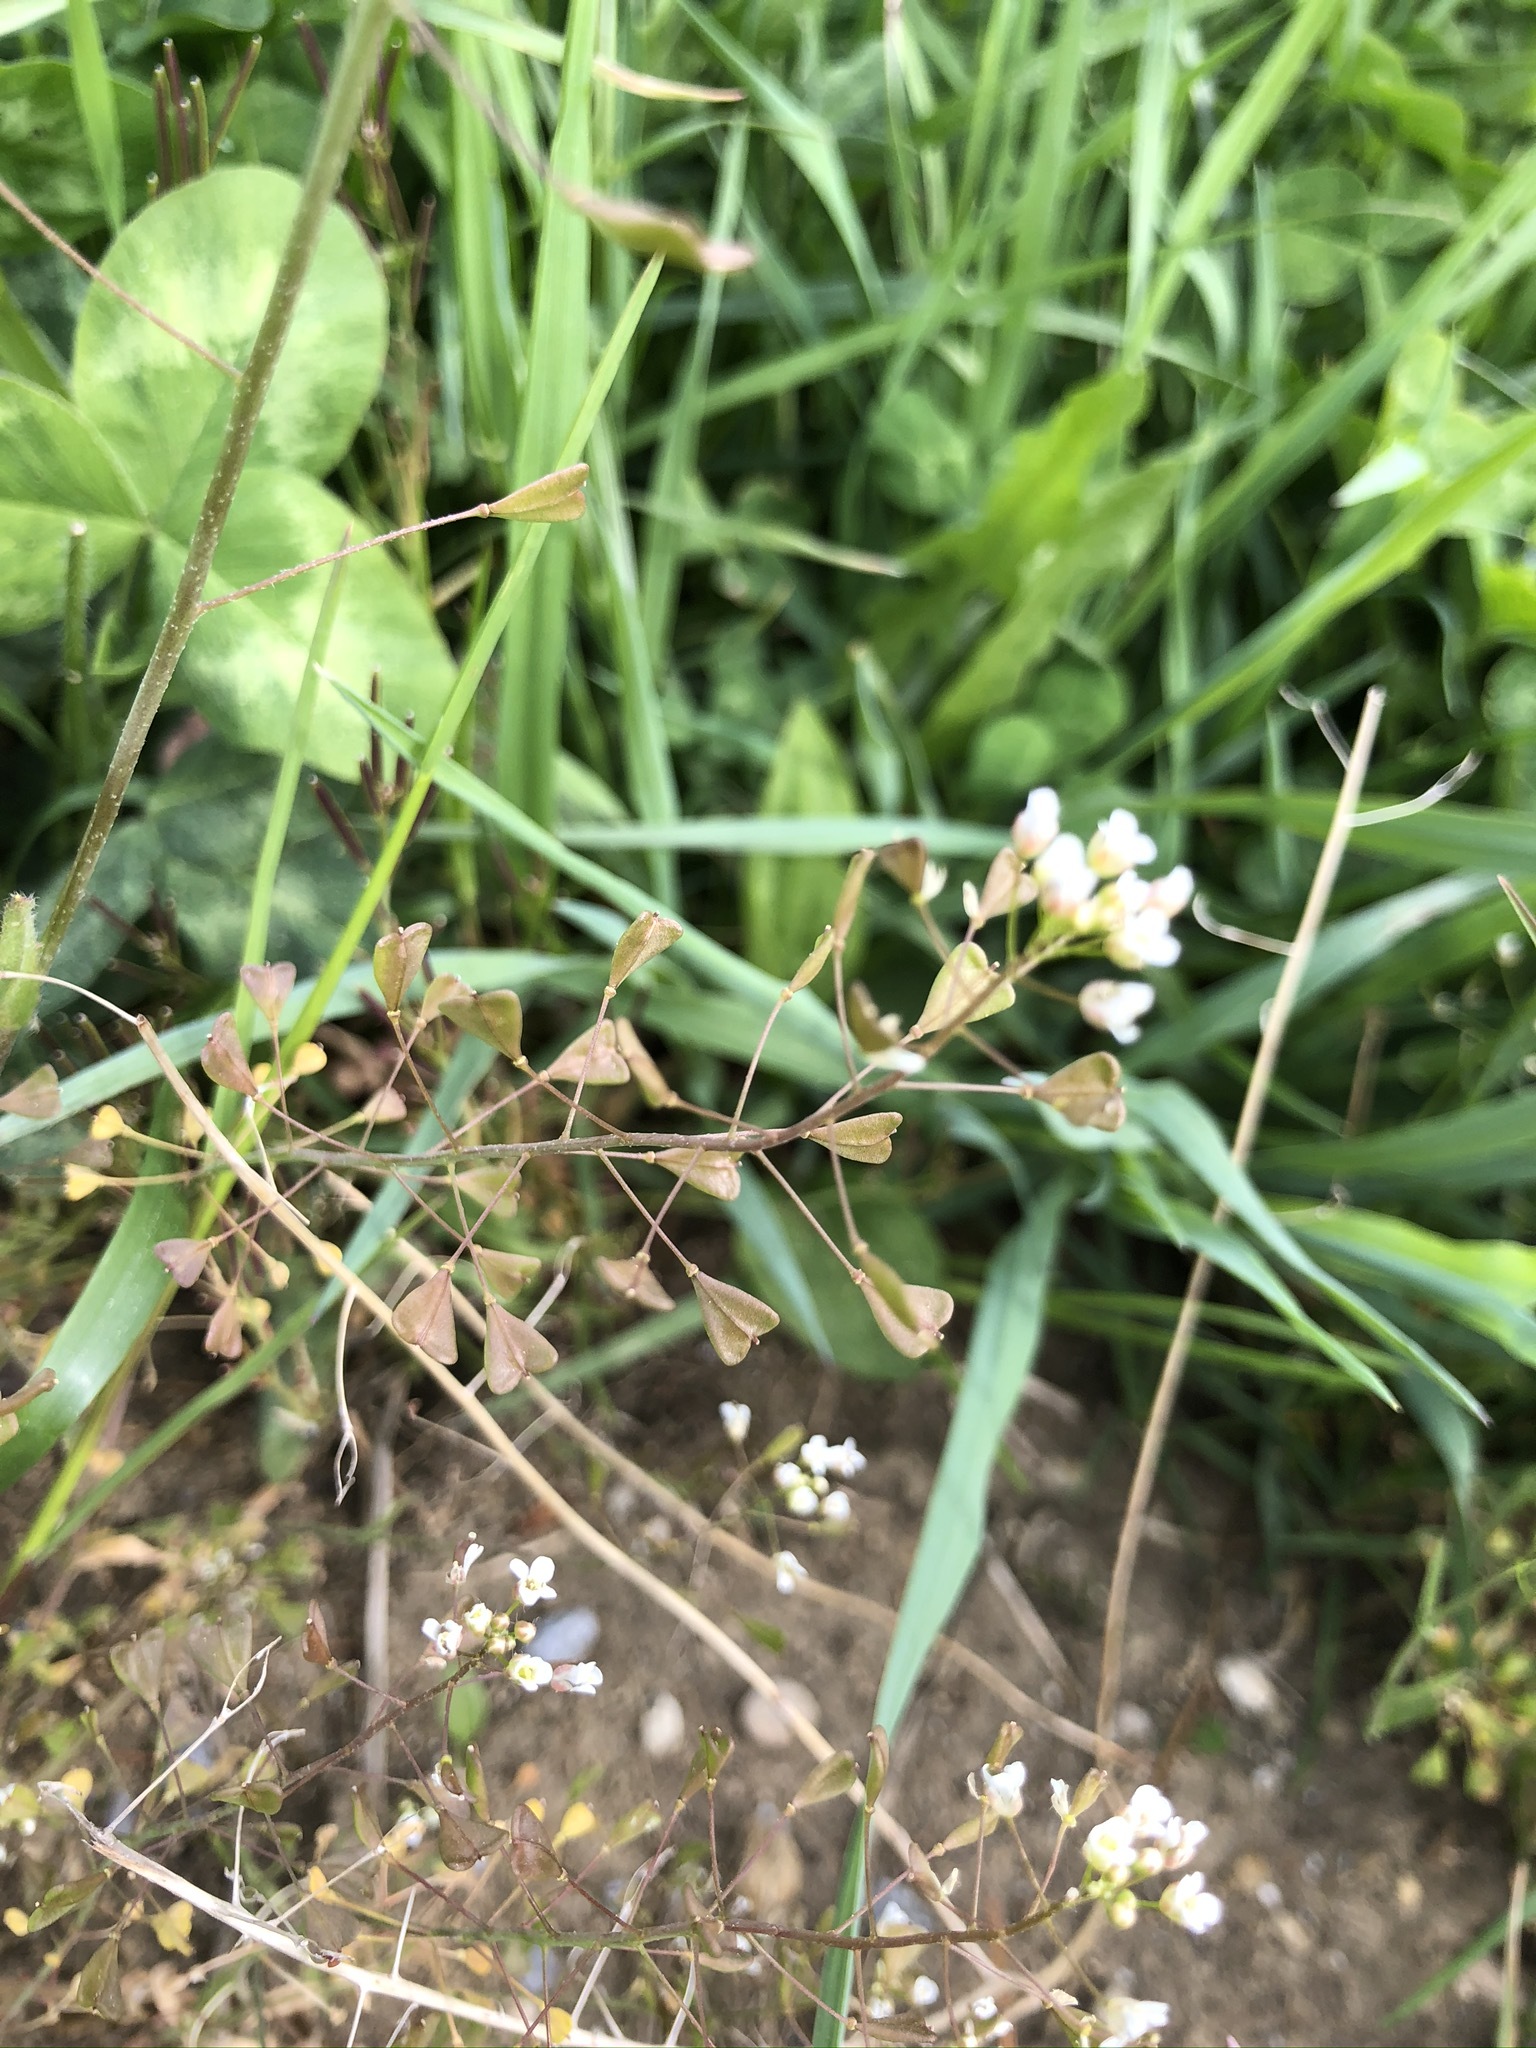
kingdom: Plantae
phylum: Tracheophyta
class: Magnoliopsida
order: Brassicales
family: Brassicaceae
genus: Capsella
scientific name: Capsella bursa-pastoris
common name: Shepherd's purse
